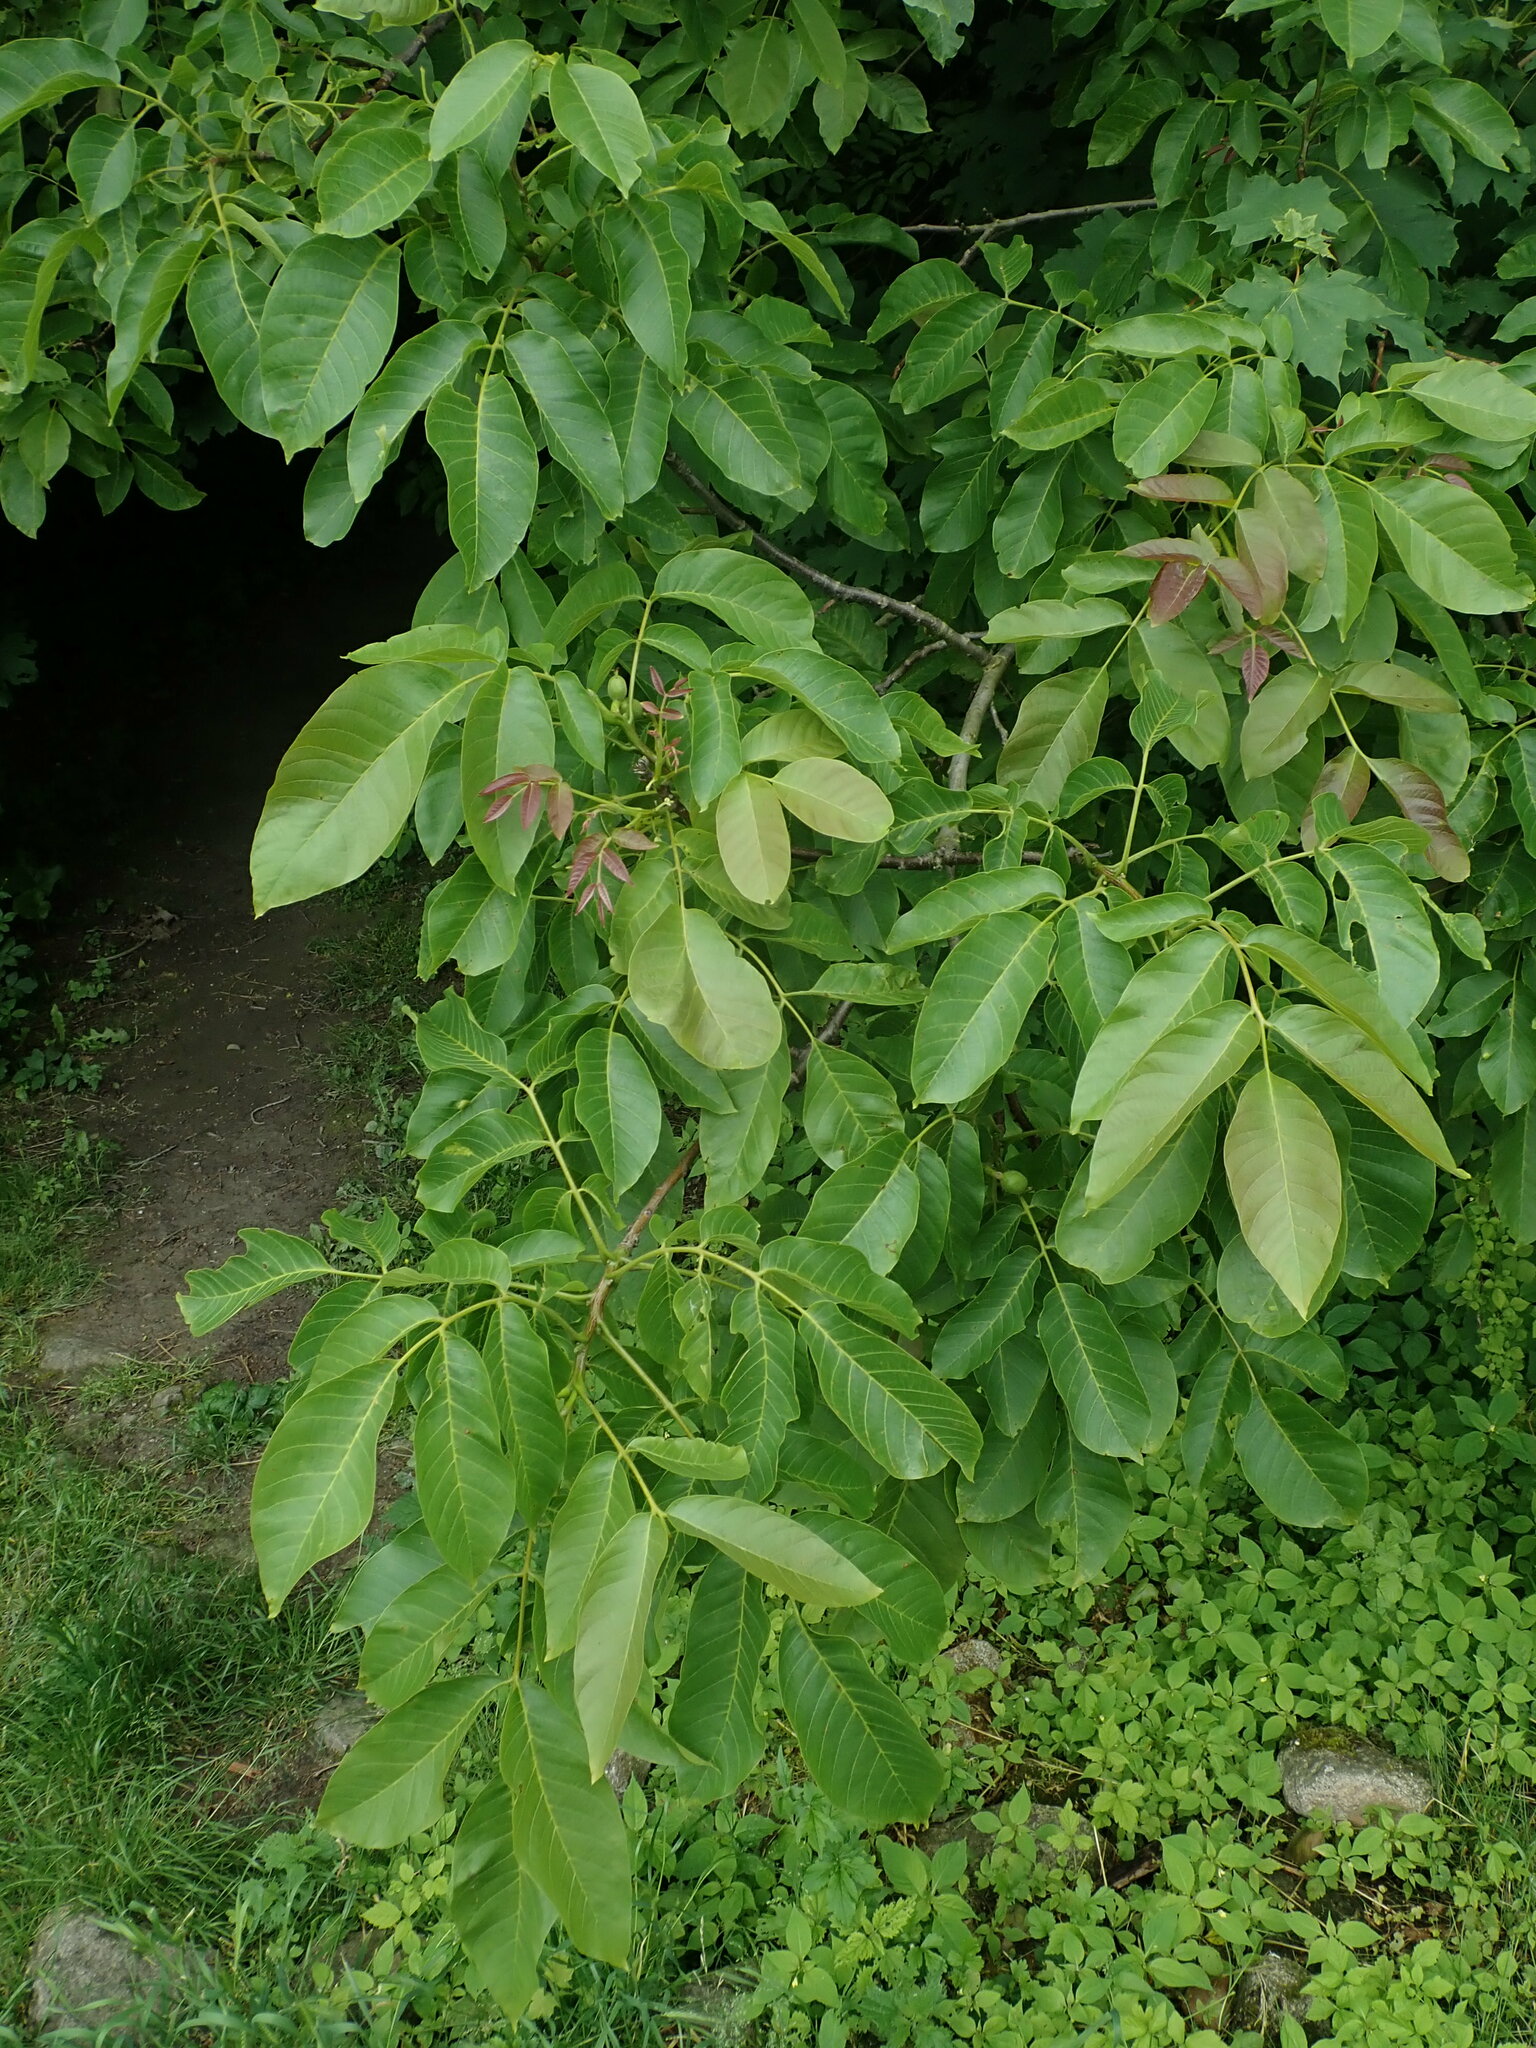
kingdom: Plantae
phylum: Tracheophyta
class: Magnoliopsida
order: Fagales
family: Juglandaceae
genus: Juglans
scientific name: Juglans regia
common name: Walnut
